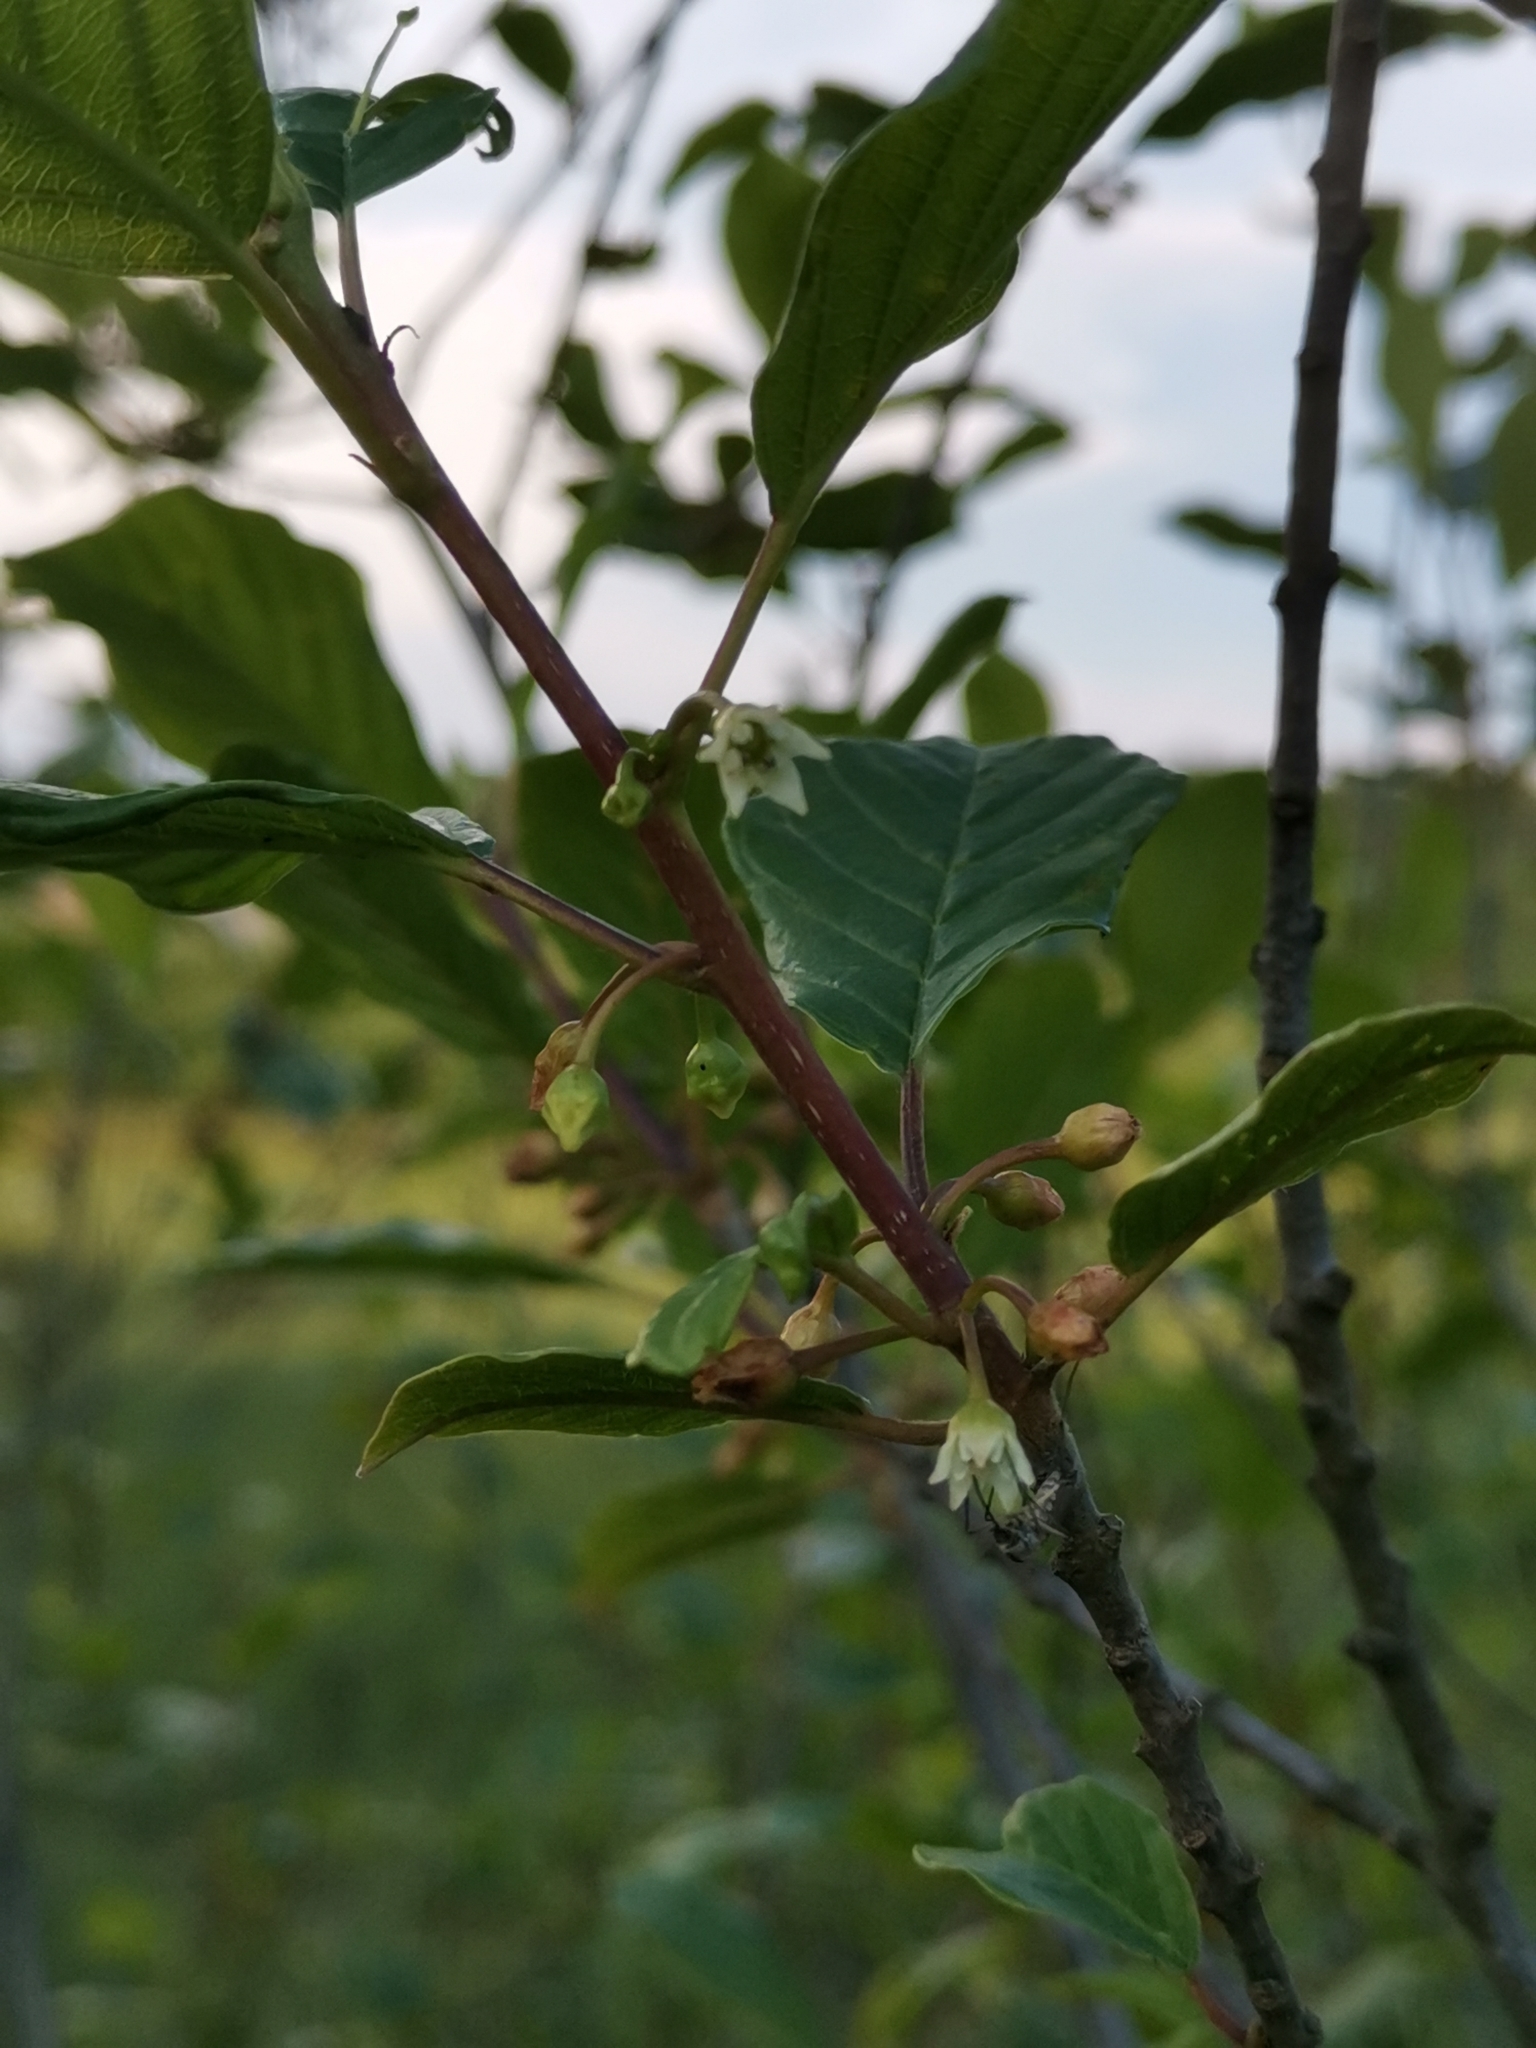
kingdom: Plantae
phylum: Tracheophyta
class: Magnoliopsida
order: Rosales
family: Rhamnaceae
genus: Frangula
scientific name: Frangula alnus
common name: Alder buckthorn
